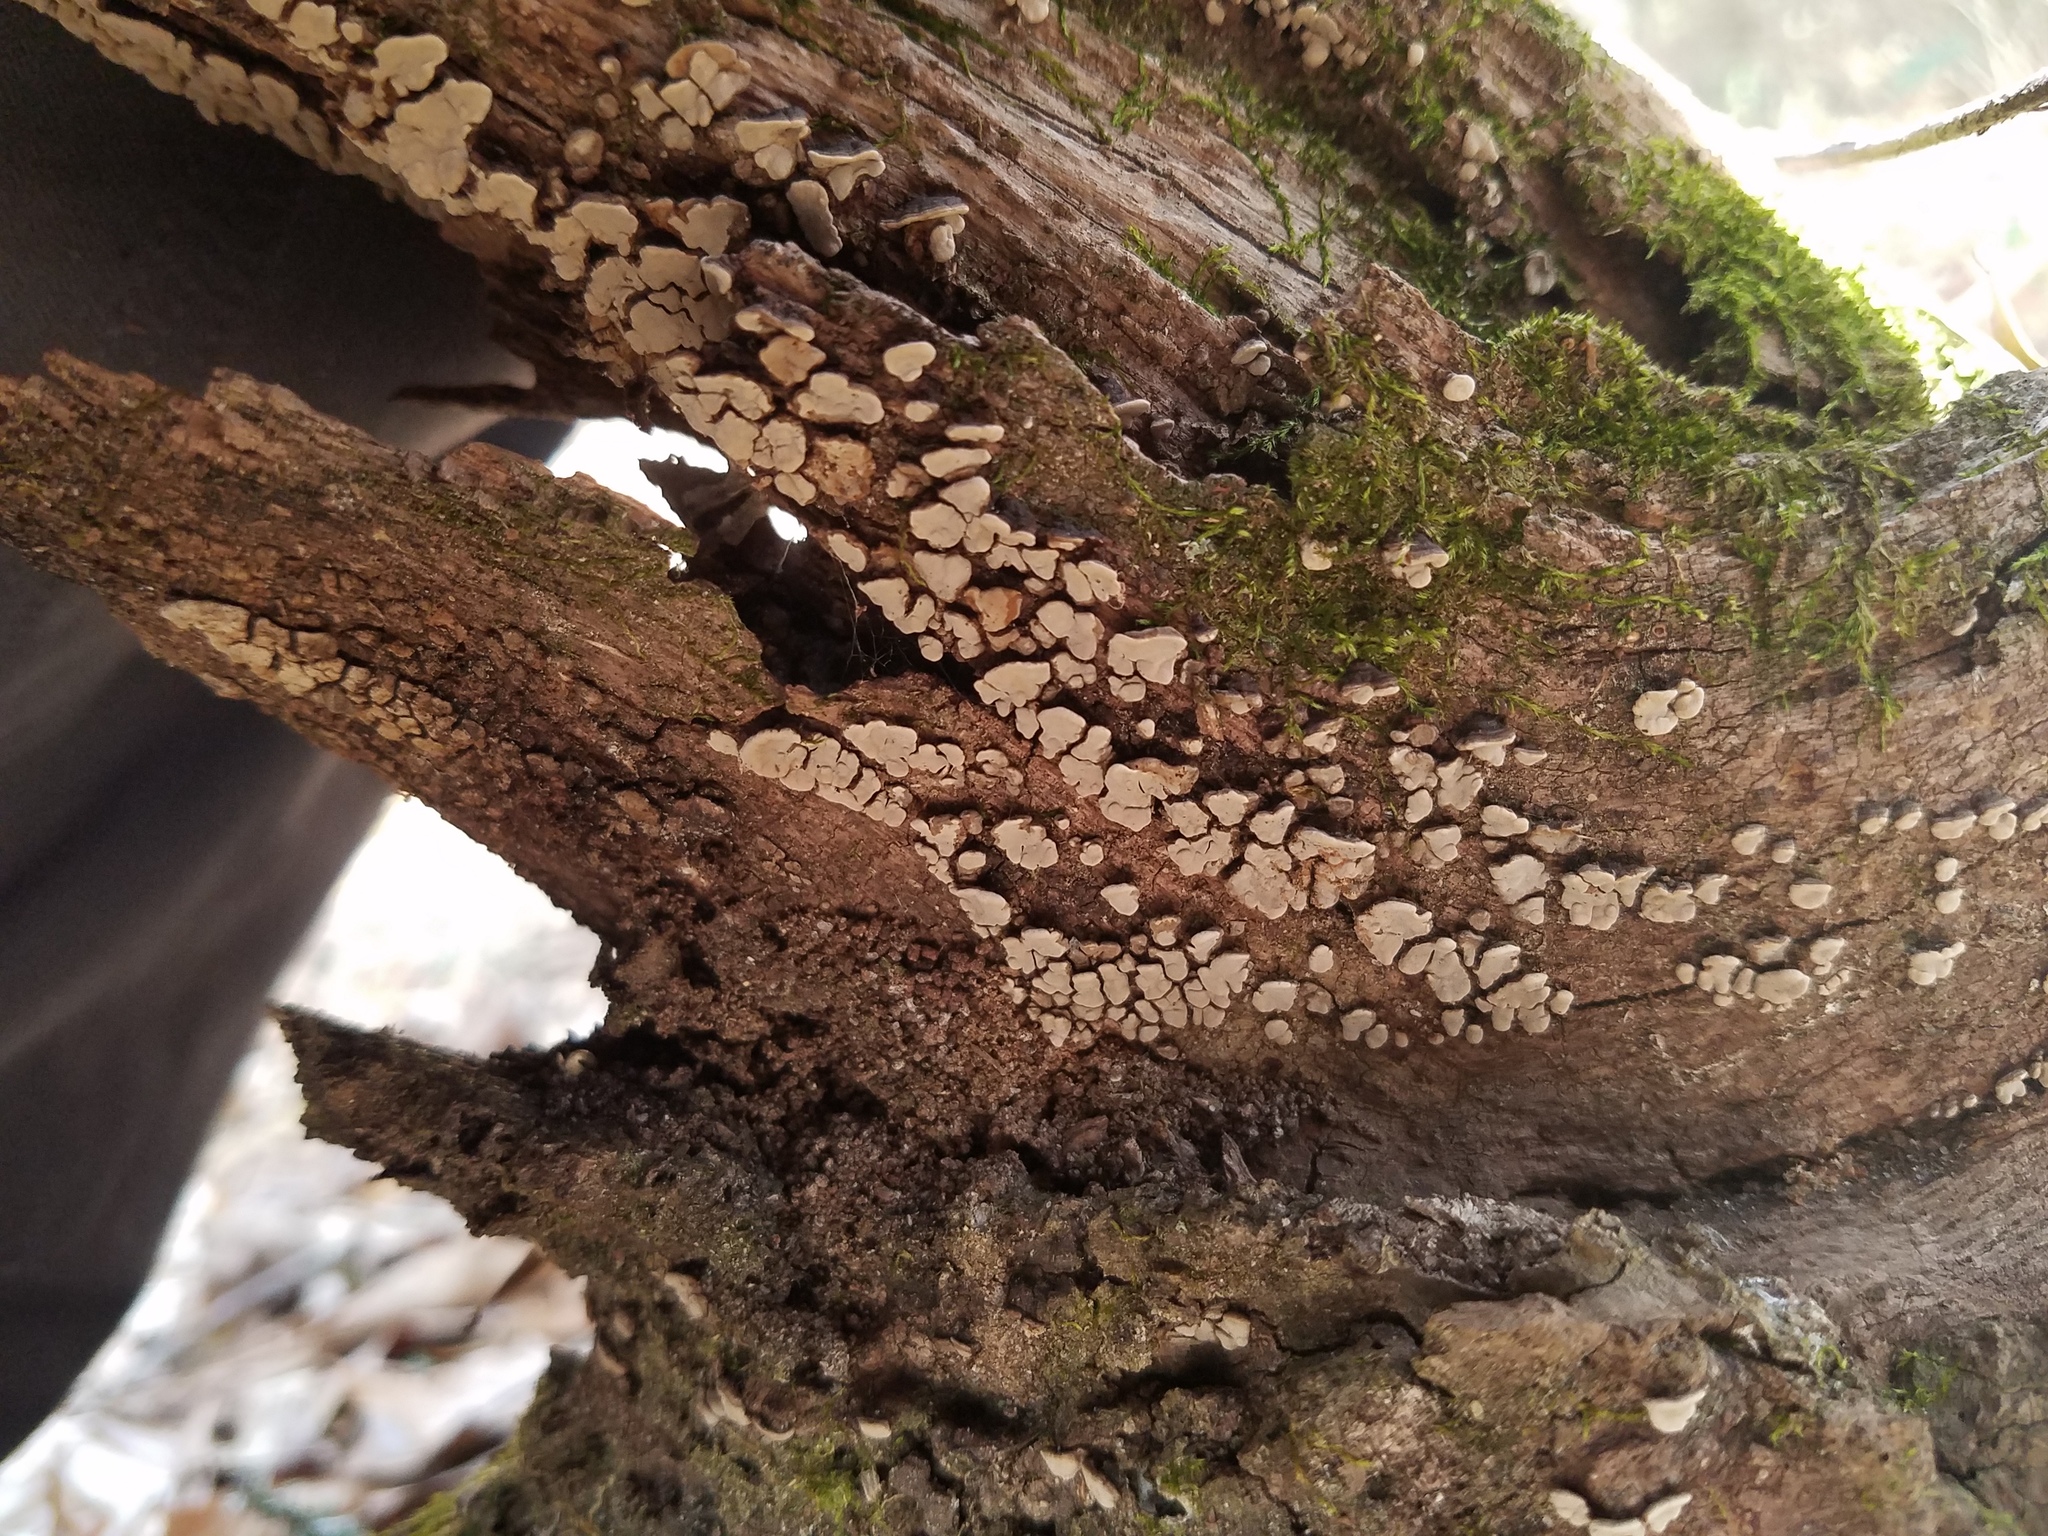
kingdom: Fungi
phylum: Basidiomycota
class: Agaricomycetes
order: Russulales
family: Stereaceae
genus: Xylobolus
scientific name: Xylobolus frustulatus
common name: Ceramic parchment
